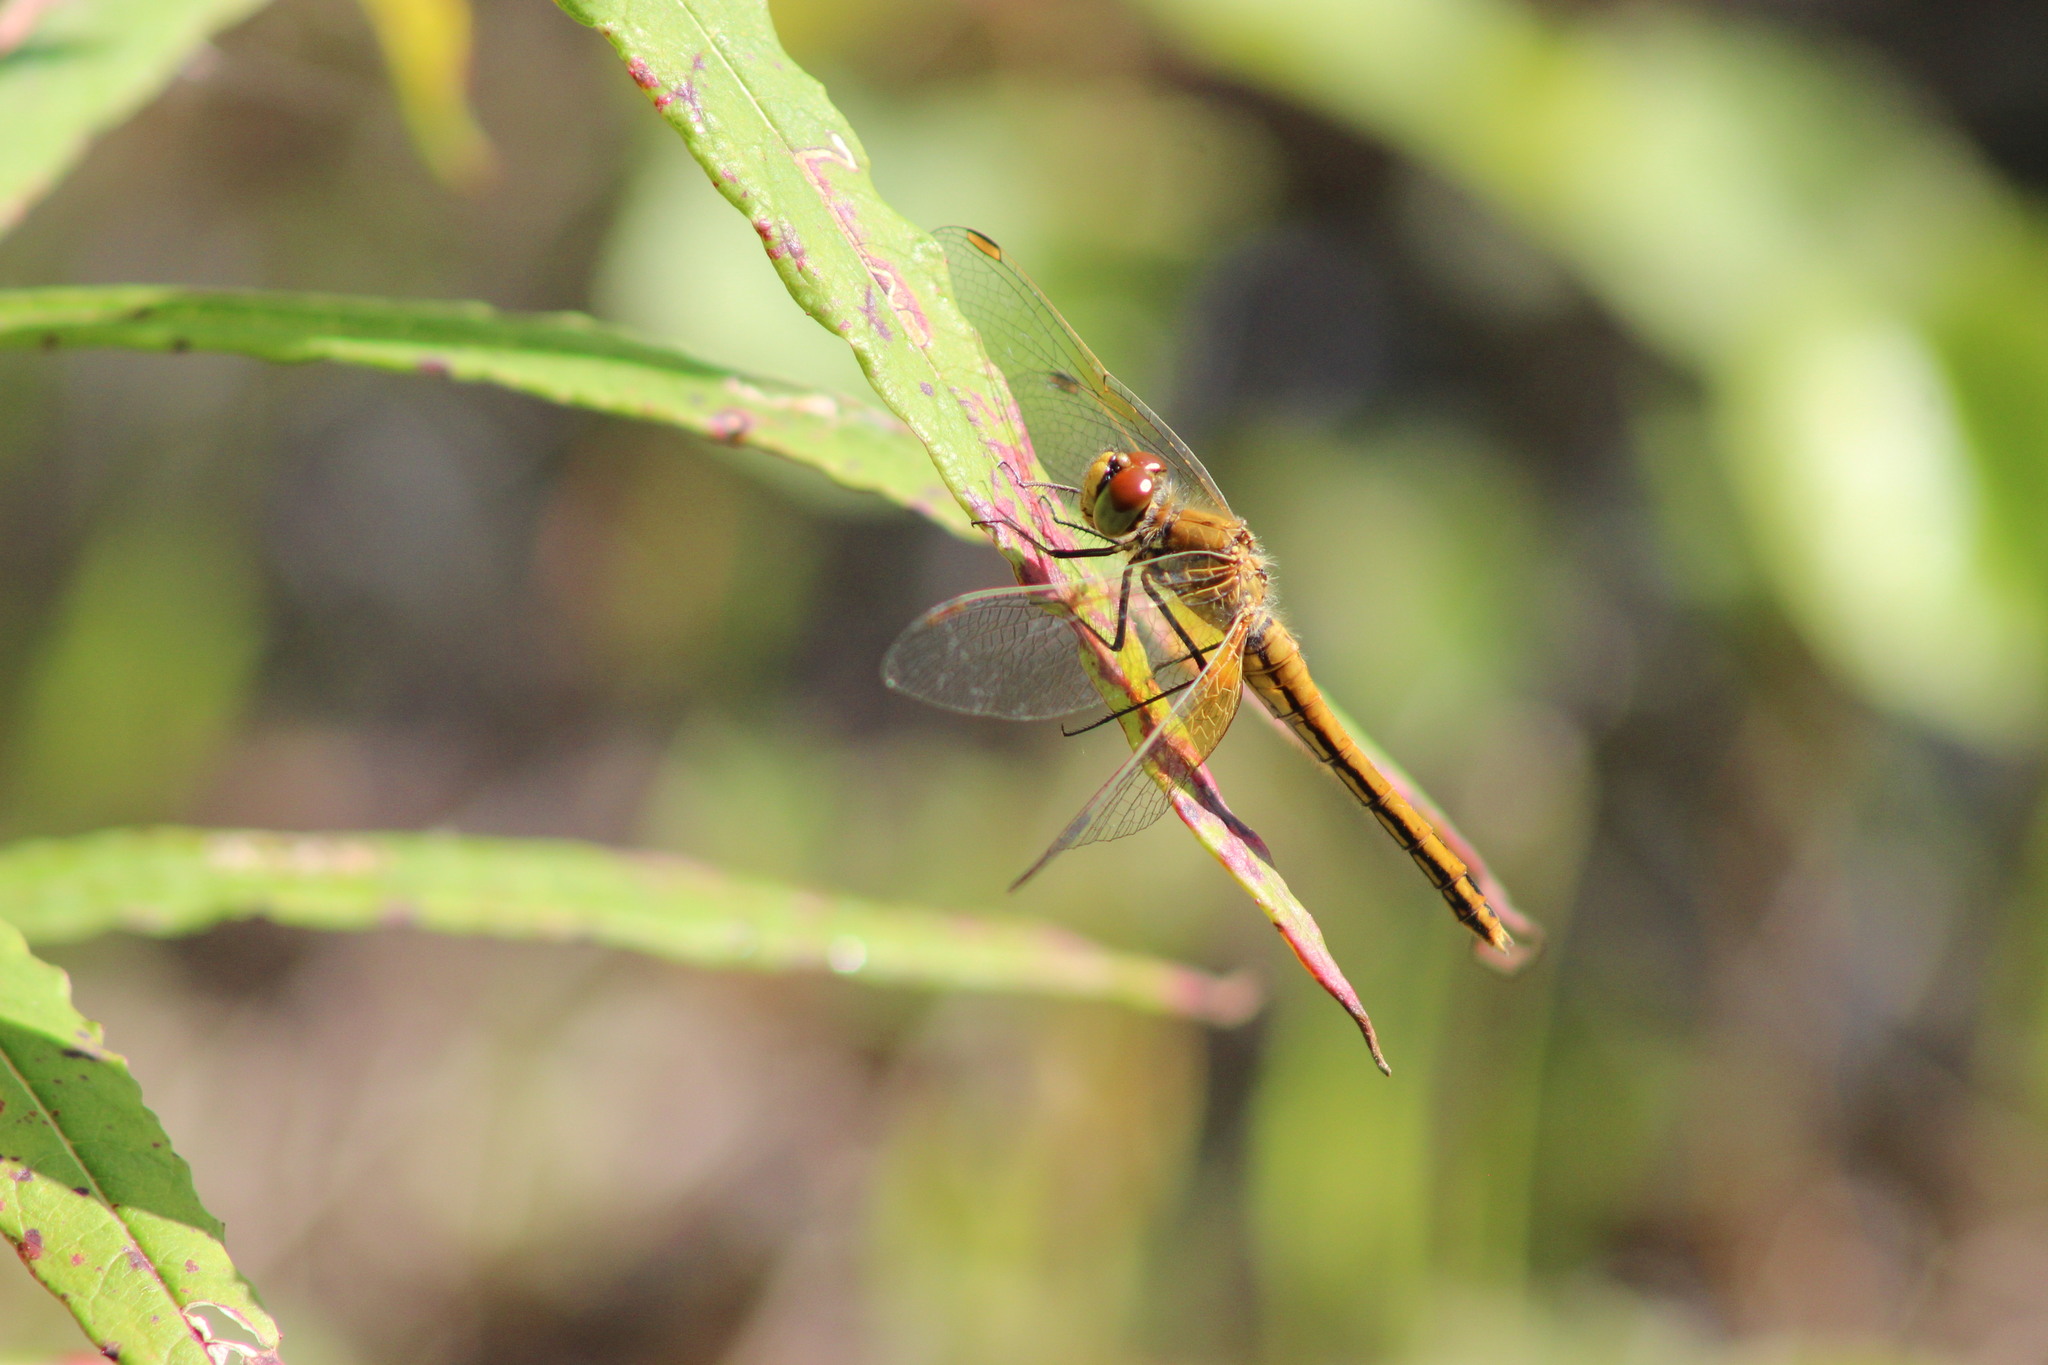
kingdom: Animalia
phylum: Arthropoda
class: Insecta
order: Odonata
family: Libellulidae
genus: Sympetrum
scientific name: Sympetrum flaveolum
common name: Yellow-winged darter
